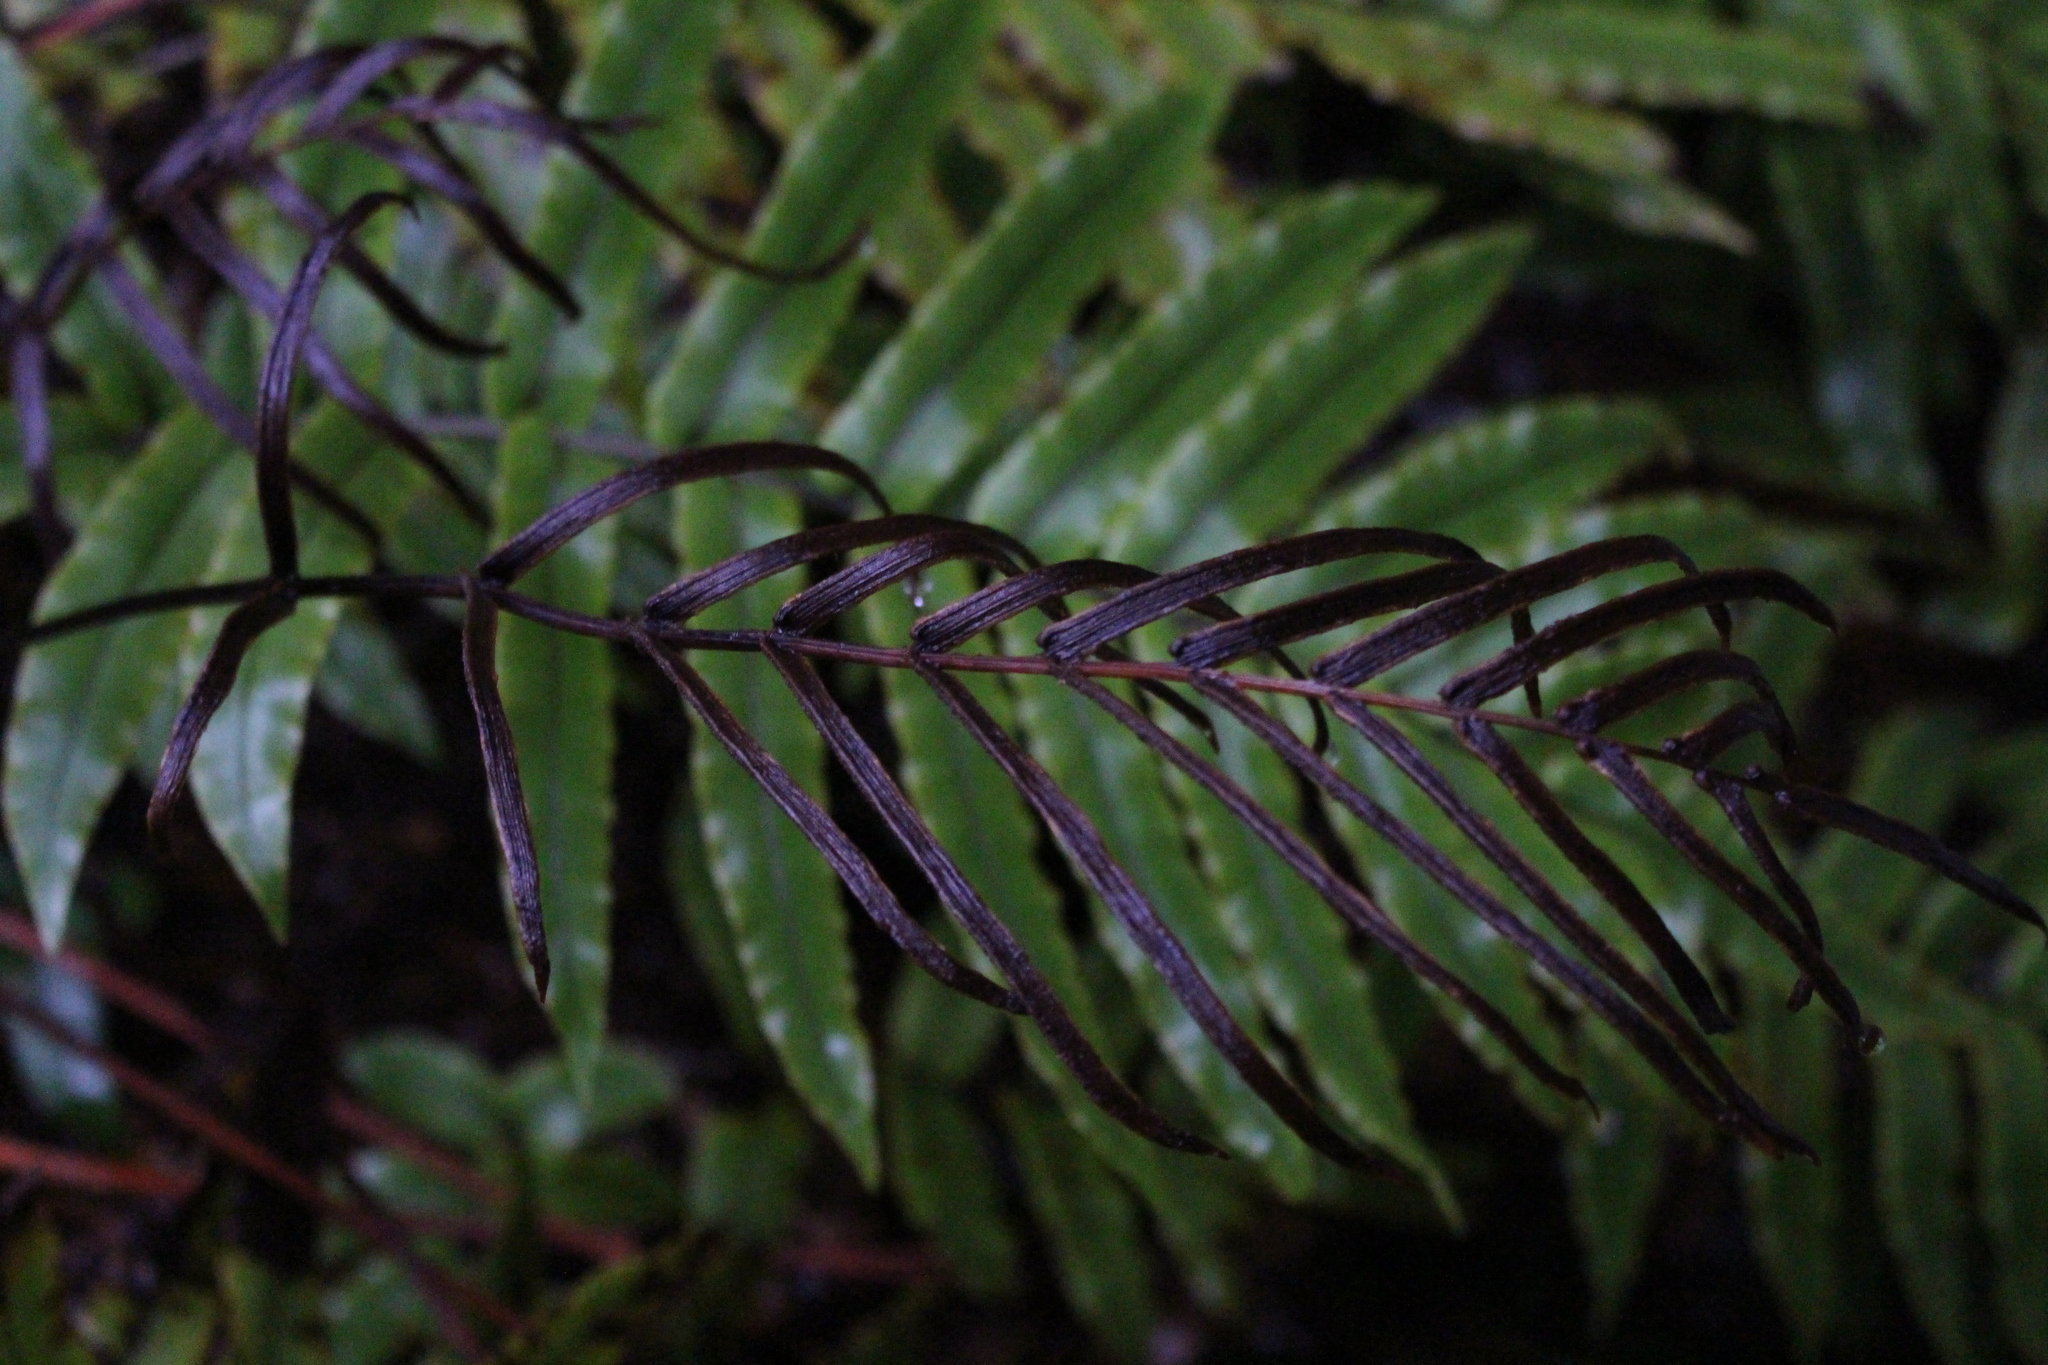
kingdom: Plantae
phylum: Tracheophyta
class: Polypodiopsida
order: Polypodiales
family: Blechnaceae
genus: Parablechnum
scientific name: Parablechnum procerum
